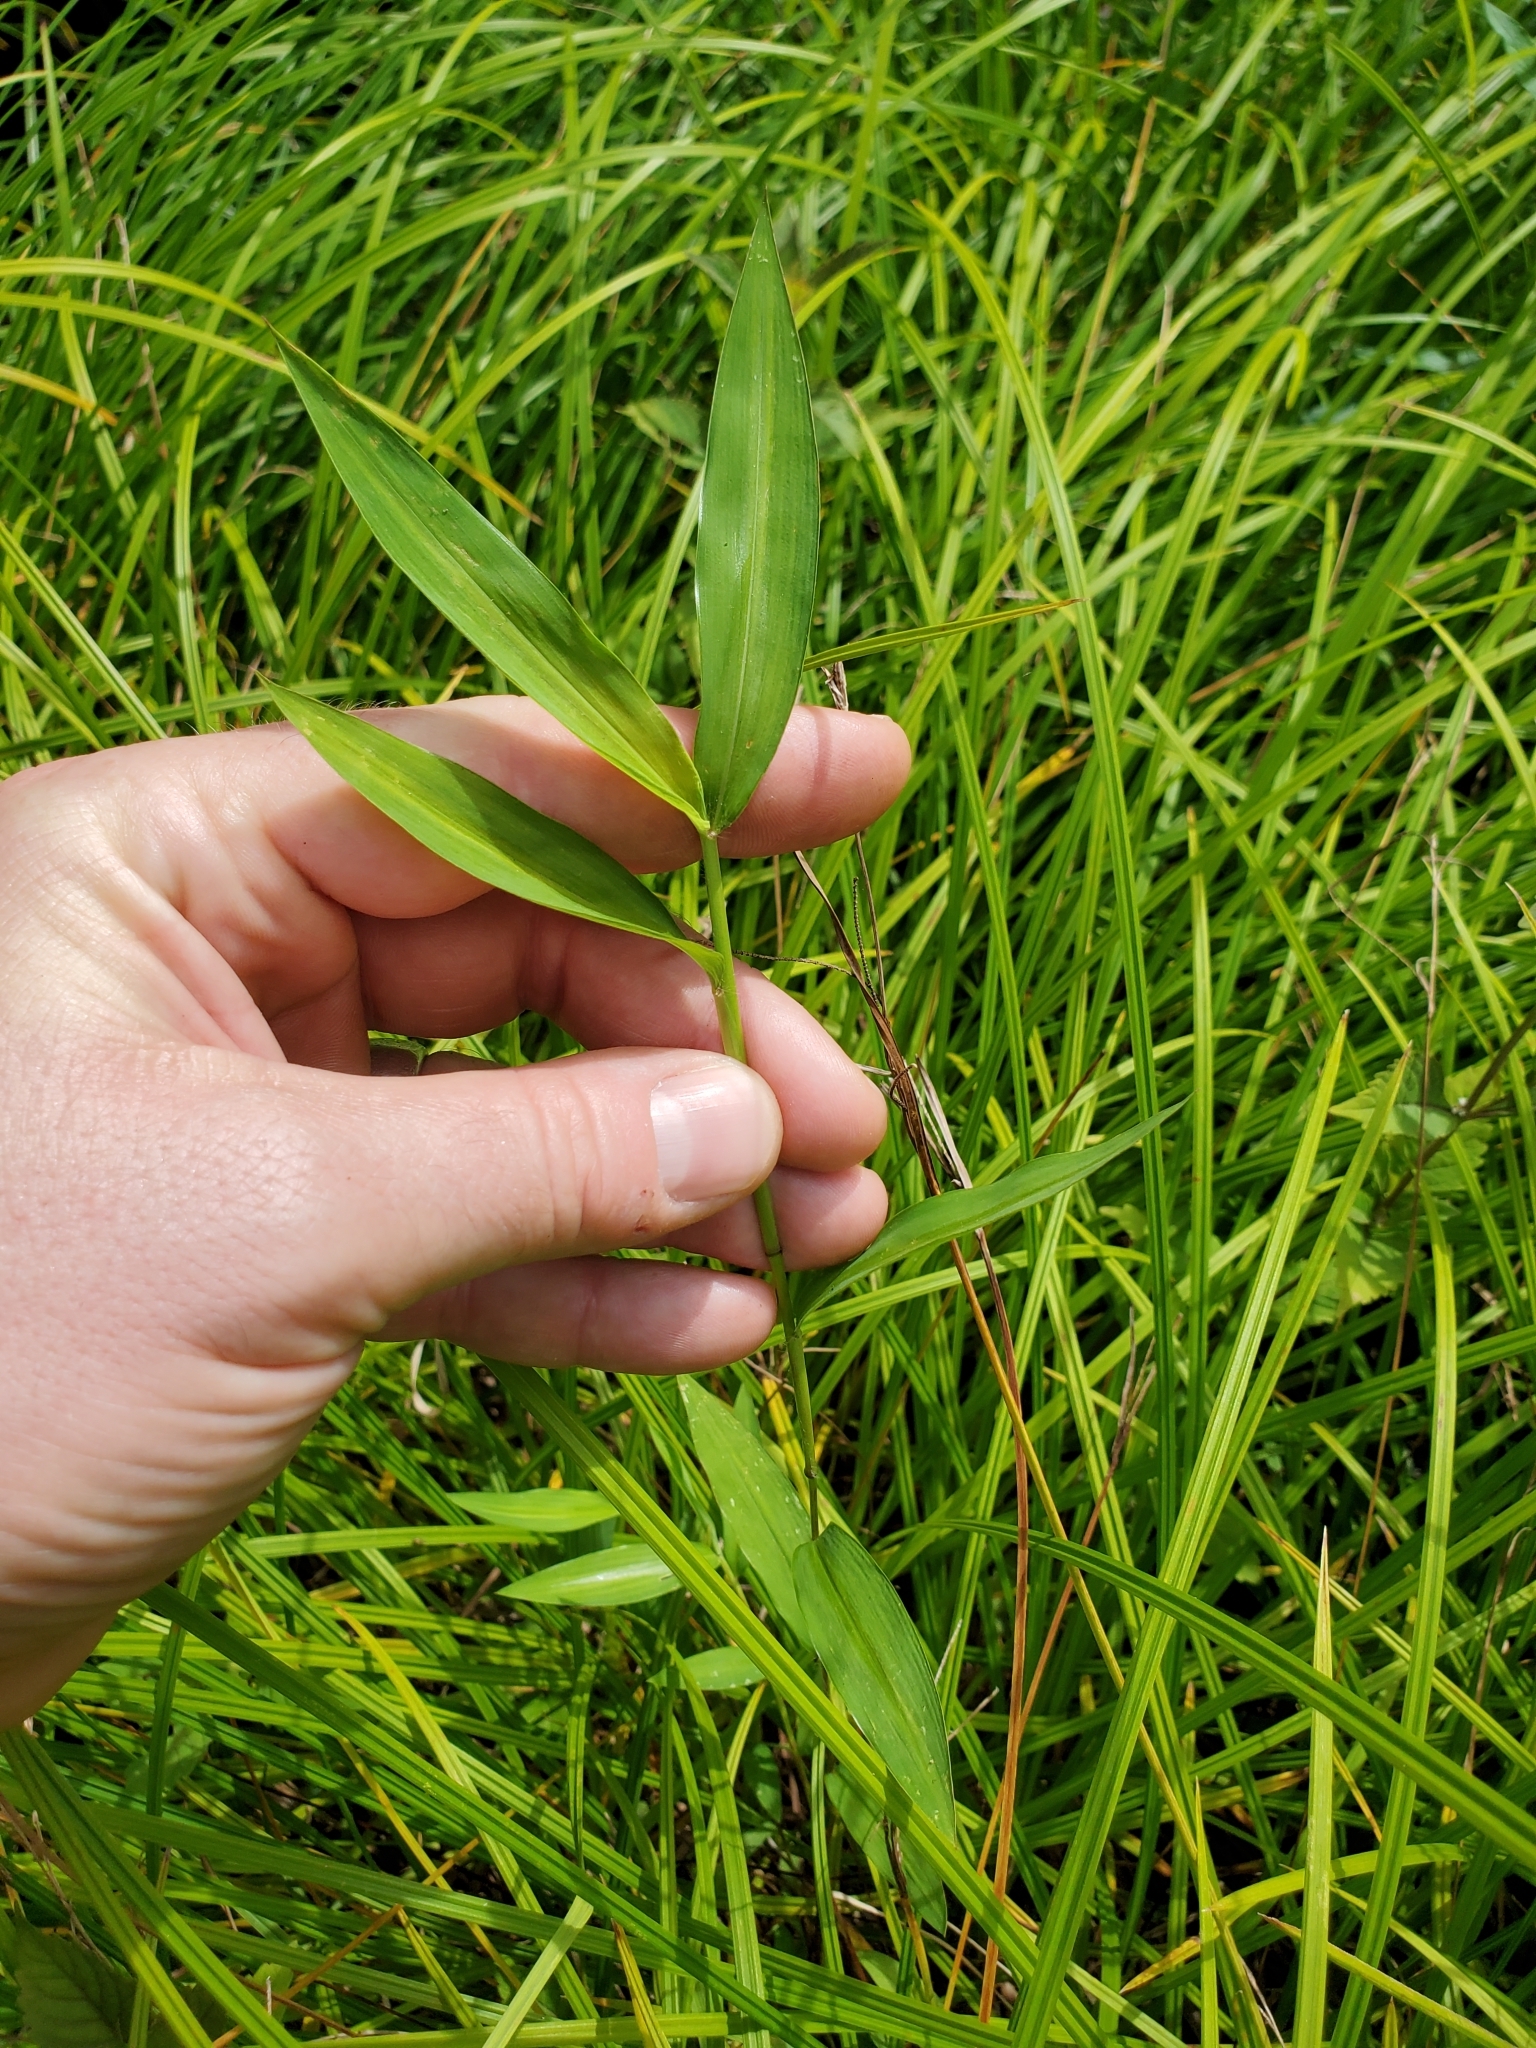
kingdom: Plantae
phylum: Tracheophyta
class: Liliopsida
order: Poales
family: Poaceae
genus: Microstegium
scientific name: Microstegium vimineum
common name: Japanese stiltgrass
